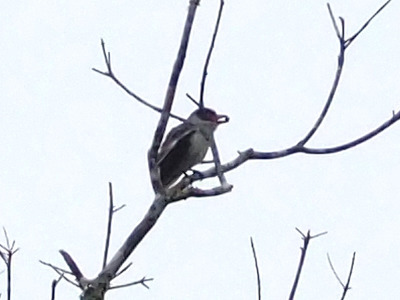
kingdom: Animalia
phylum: Chordata
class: Aves
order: Passeriformes
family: Cotingidae
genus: Tityra
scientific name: Tityra semifasciata
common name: Masked tityra
